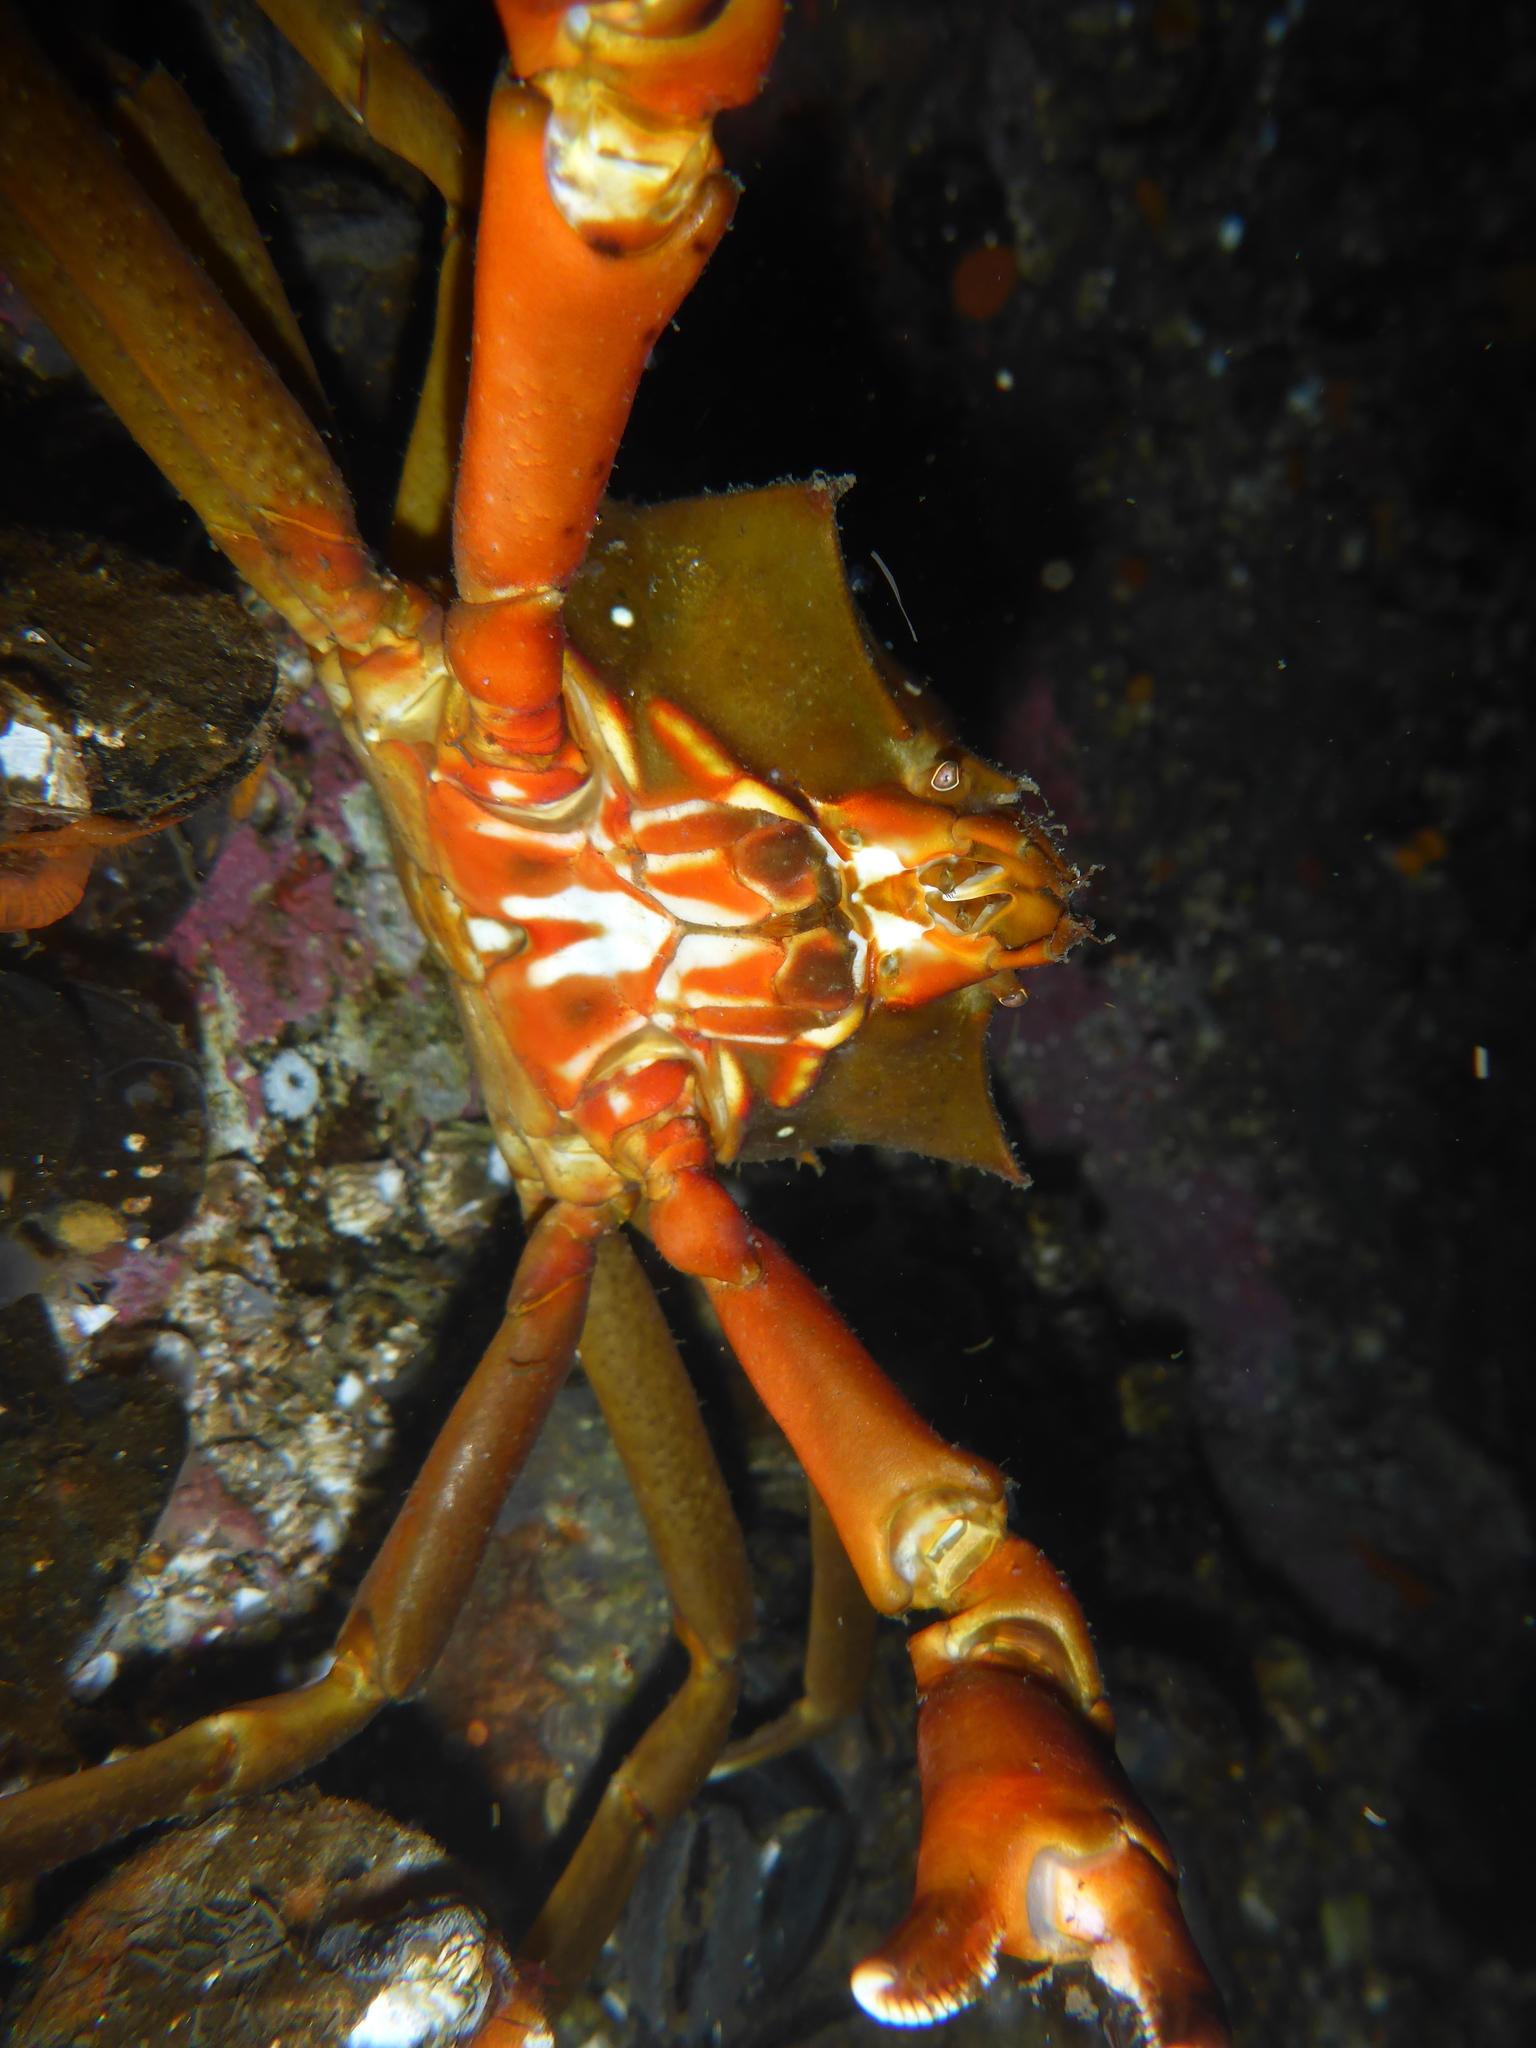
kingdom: Animalia
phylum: Arthropoda
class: Malacostraca
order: Decapoda
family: Epialtidae
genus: Pugettia
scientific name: Pugettia producta
